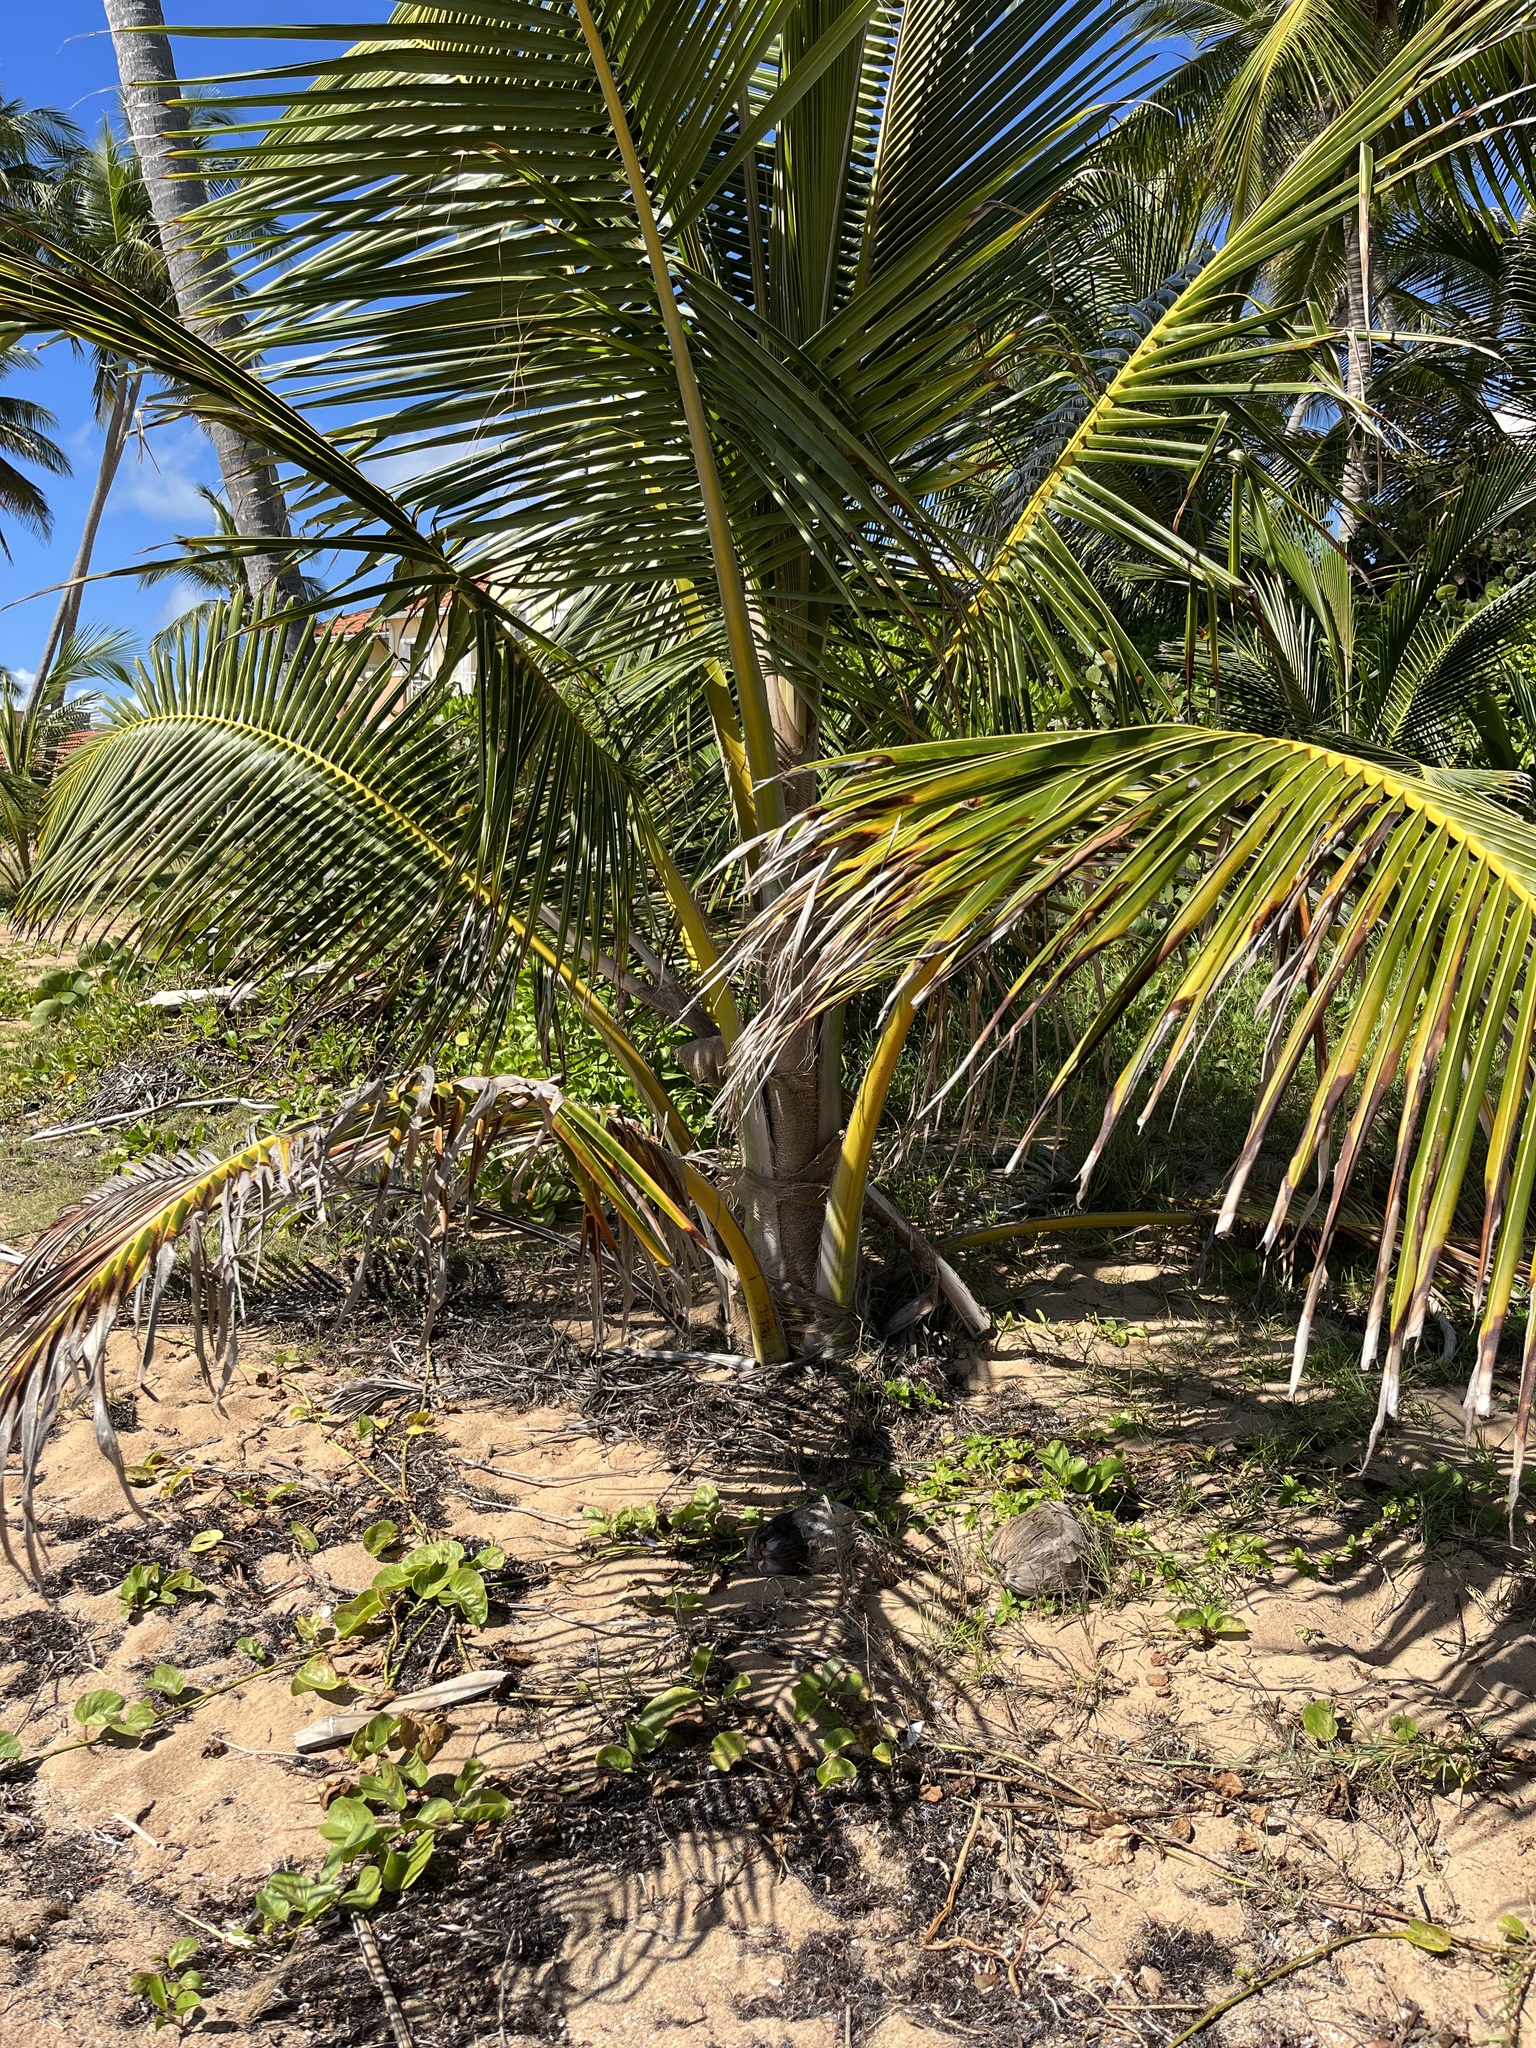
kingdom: Plantae
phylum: Tracheophyta
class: Liliopsida
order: Arecales
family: Arecaceae
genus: Cocos
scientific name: Cocos nucifera
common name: Coconut palm
